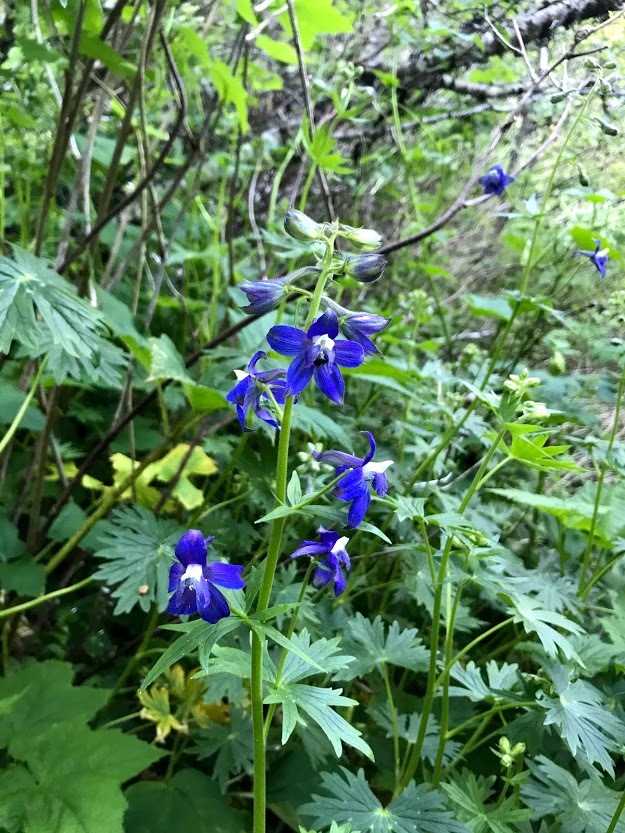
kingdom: Plantae
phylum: Tracheophyta
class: Magnoliopsida
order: Ranunculales
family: Ranunculaceae
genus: Delphinium
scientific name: Delphinium trolliifolium
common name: Cow-poison
